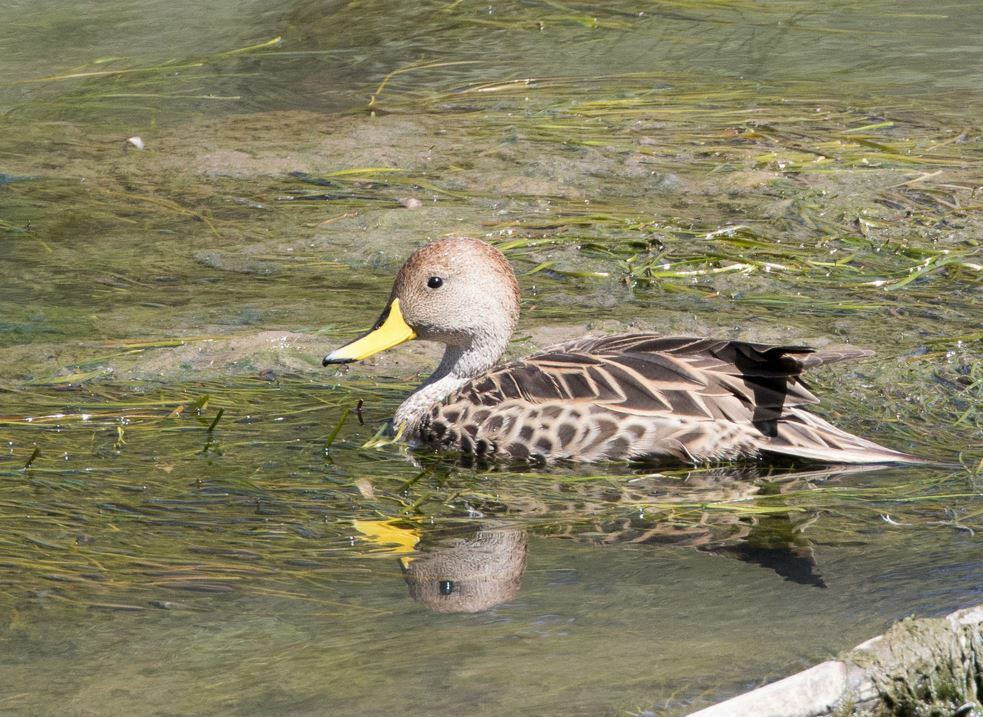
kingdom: Animalia
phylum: Chordata
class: Aves
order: Anseriformes
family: Anatidae
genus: Anas
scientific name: Anas georgica
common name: Yellow-billed pintail
